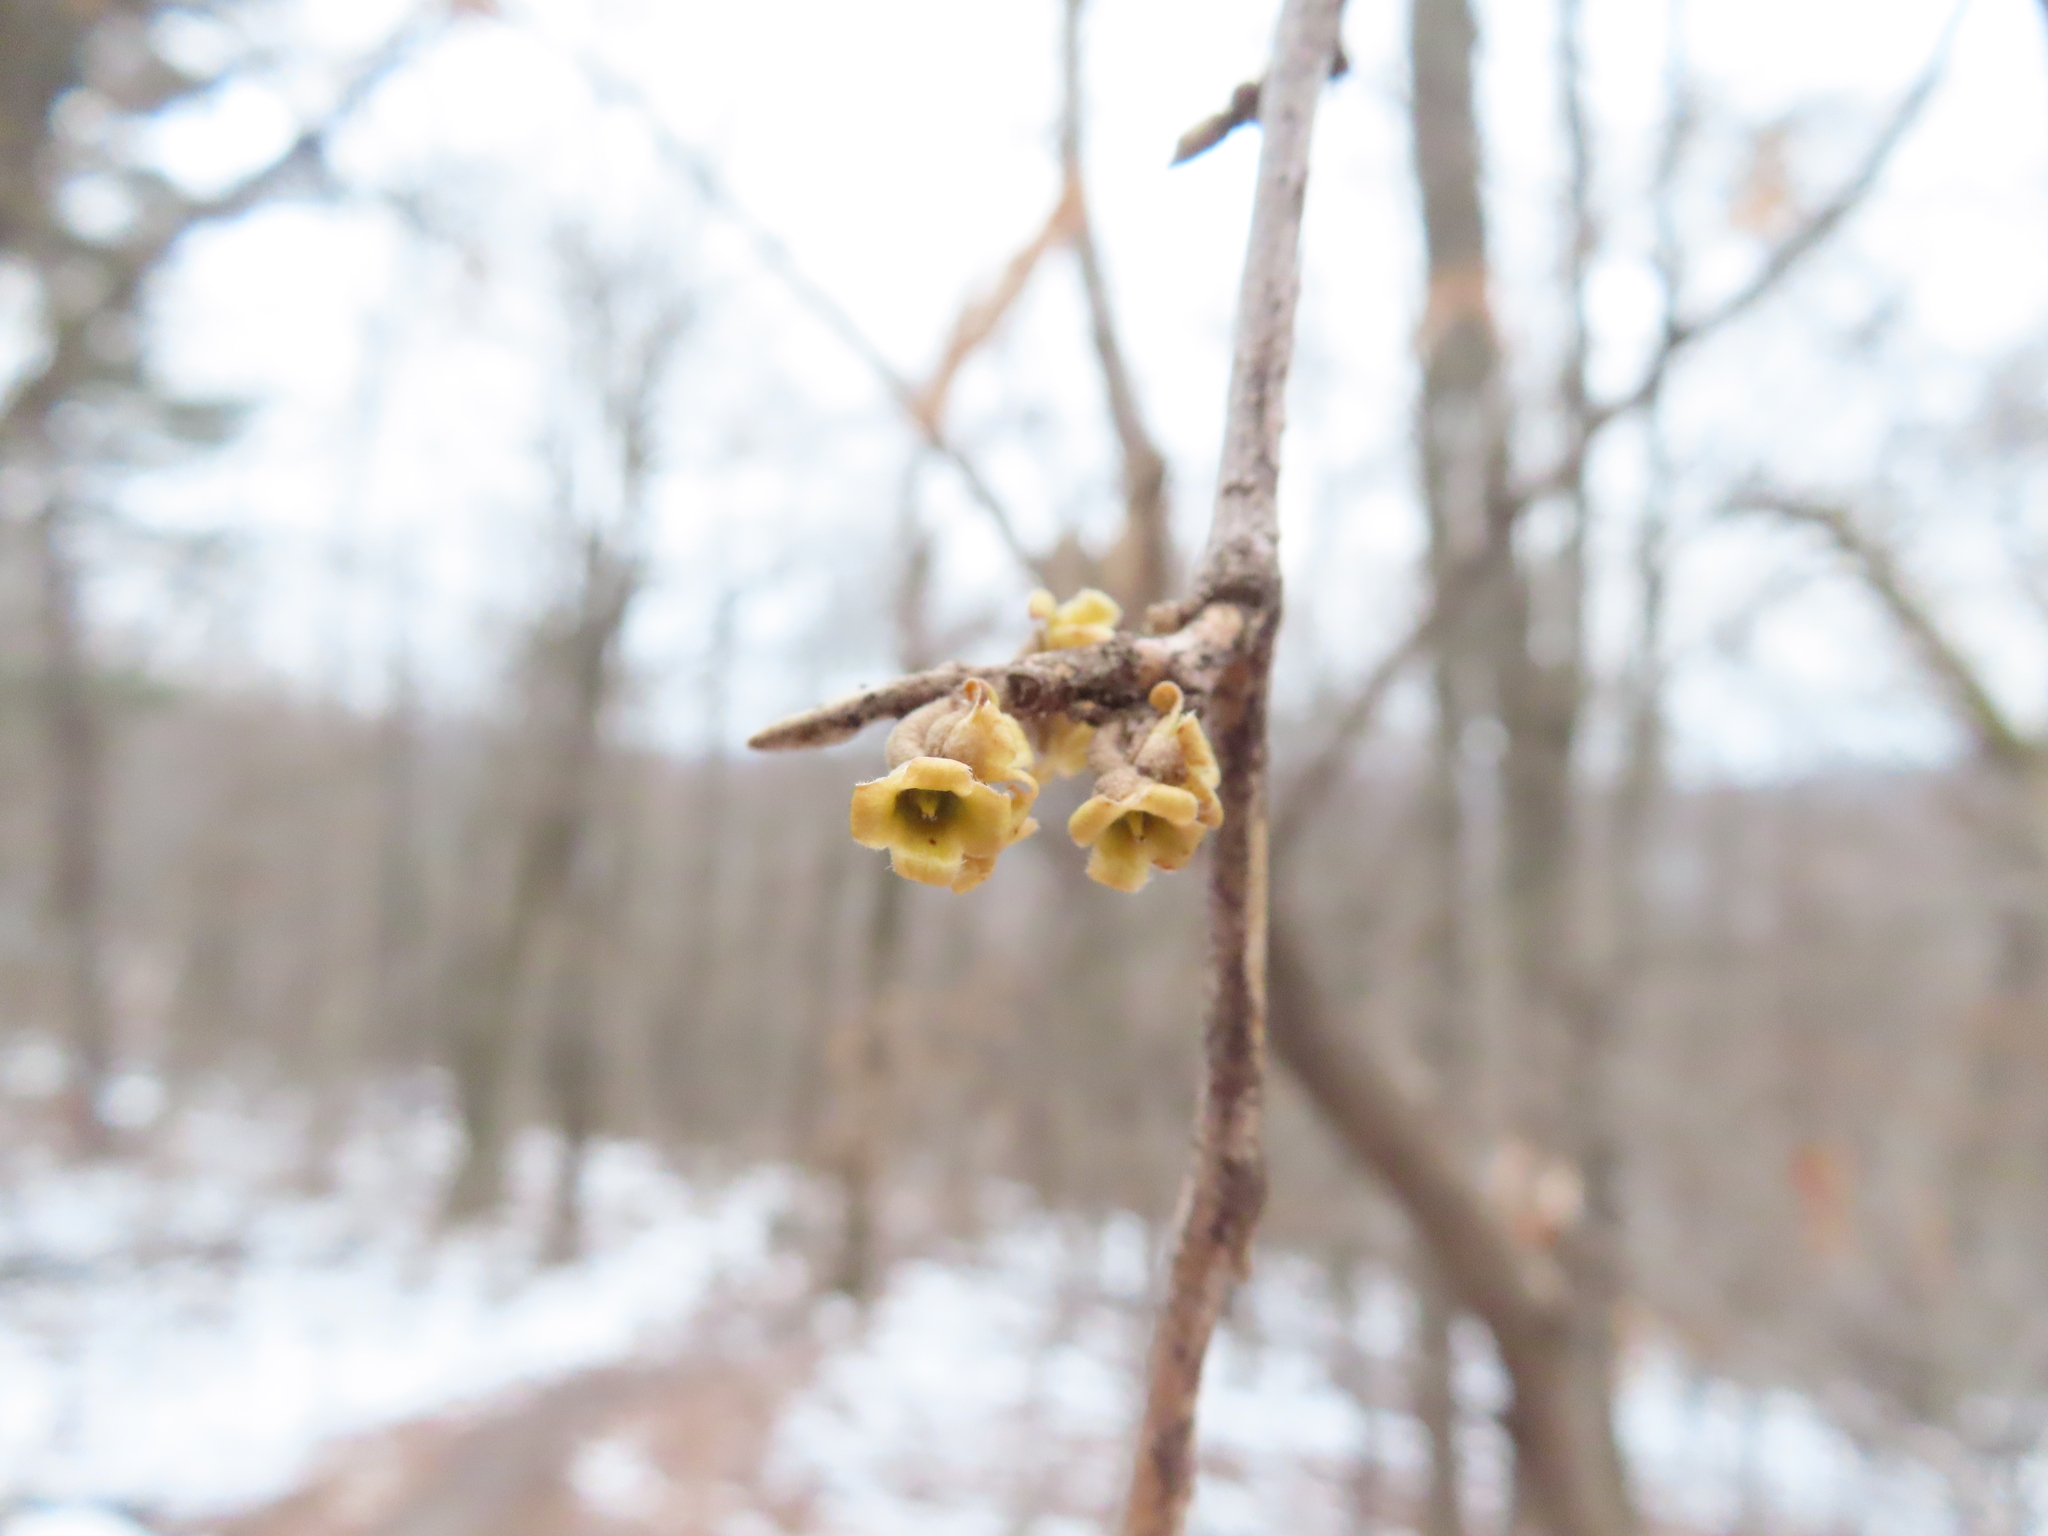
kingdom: Plantae
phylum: Tracheophyta
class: Magnoliopsida
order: Saxifragales
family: Hamamelidaceae
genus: Hamamelis
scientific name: Hamamelis virginiana
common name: Witch-hazel
